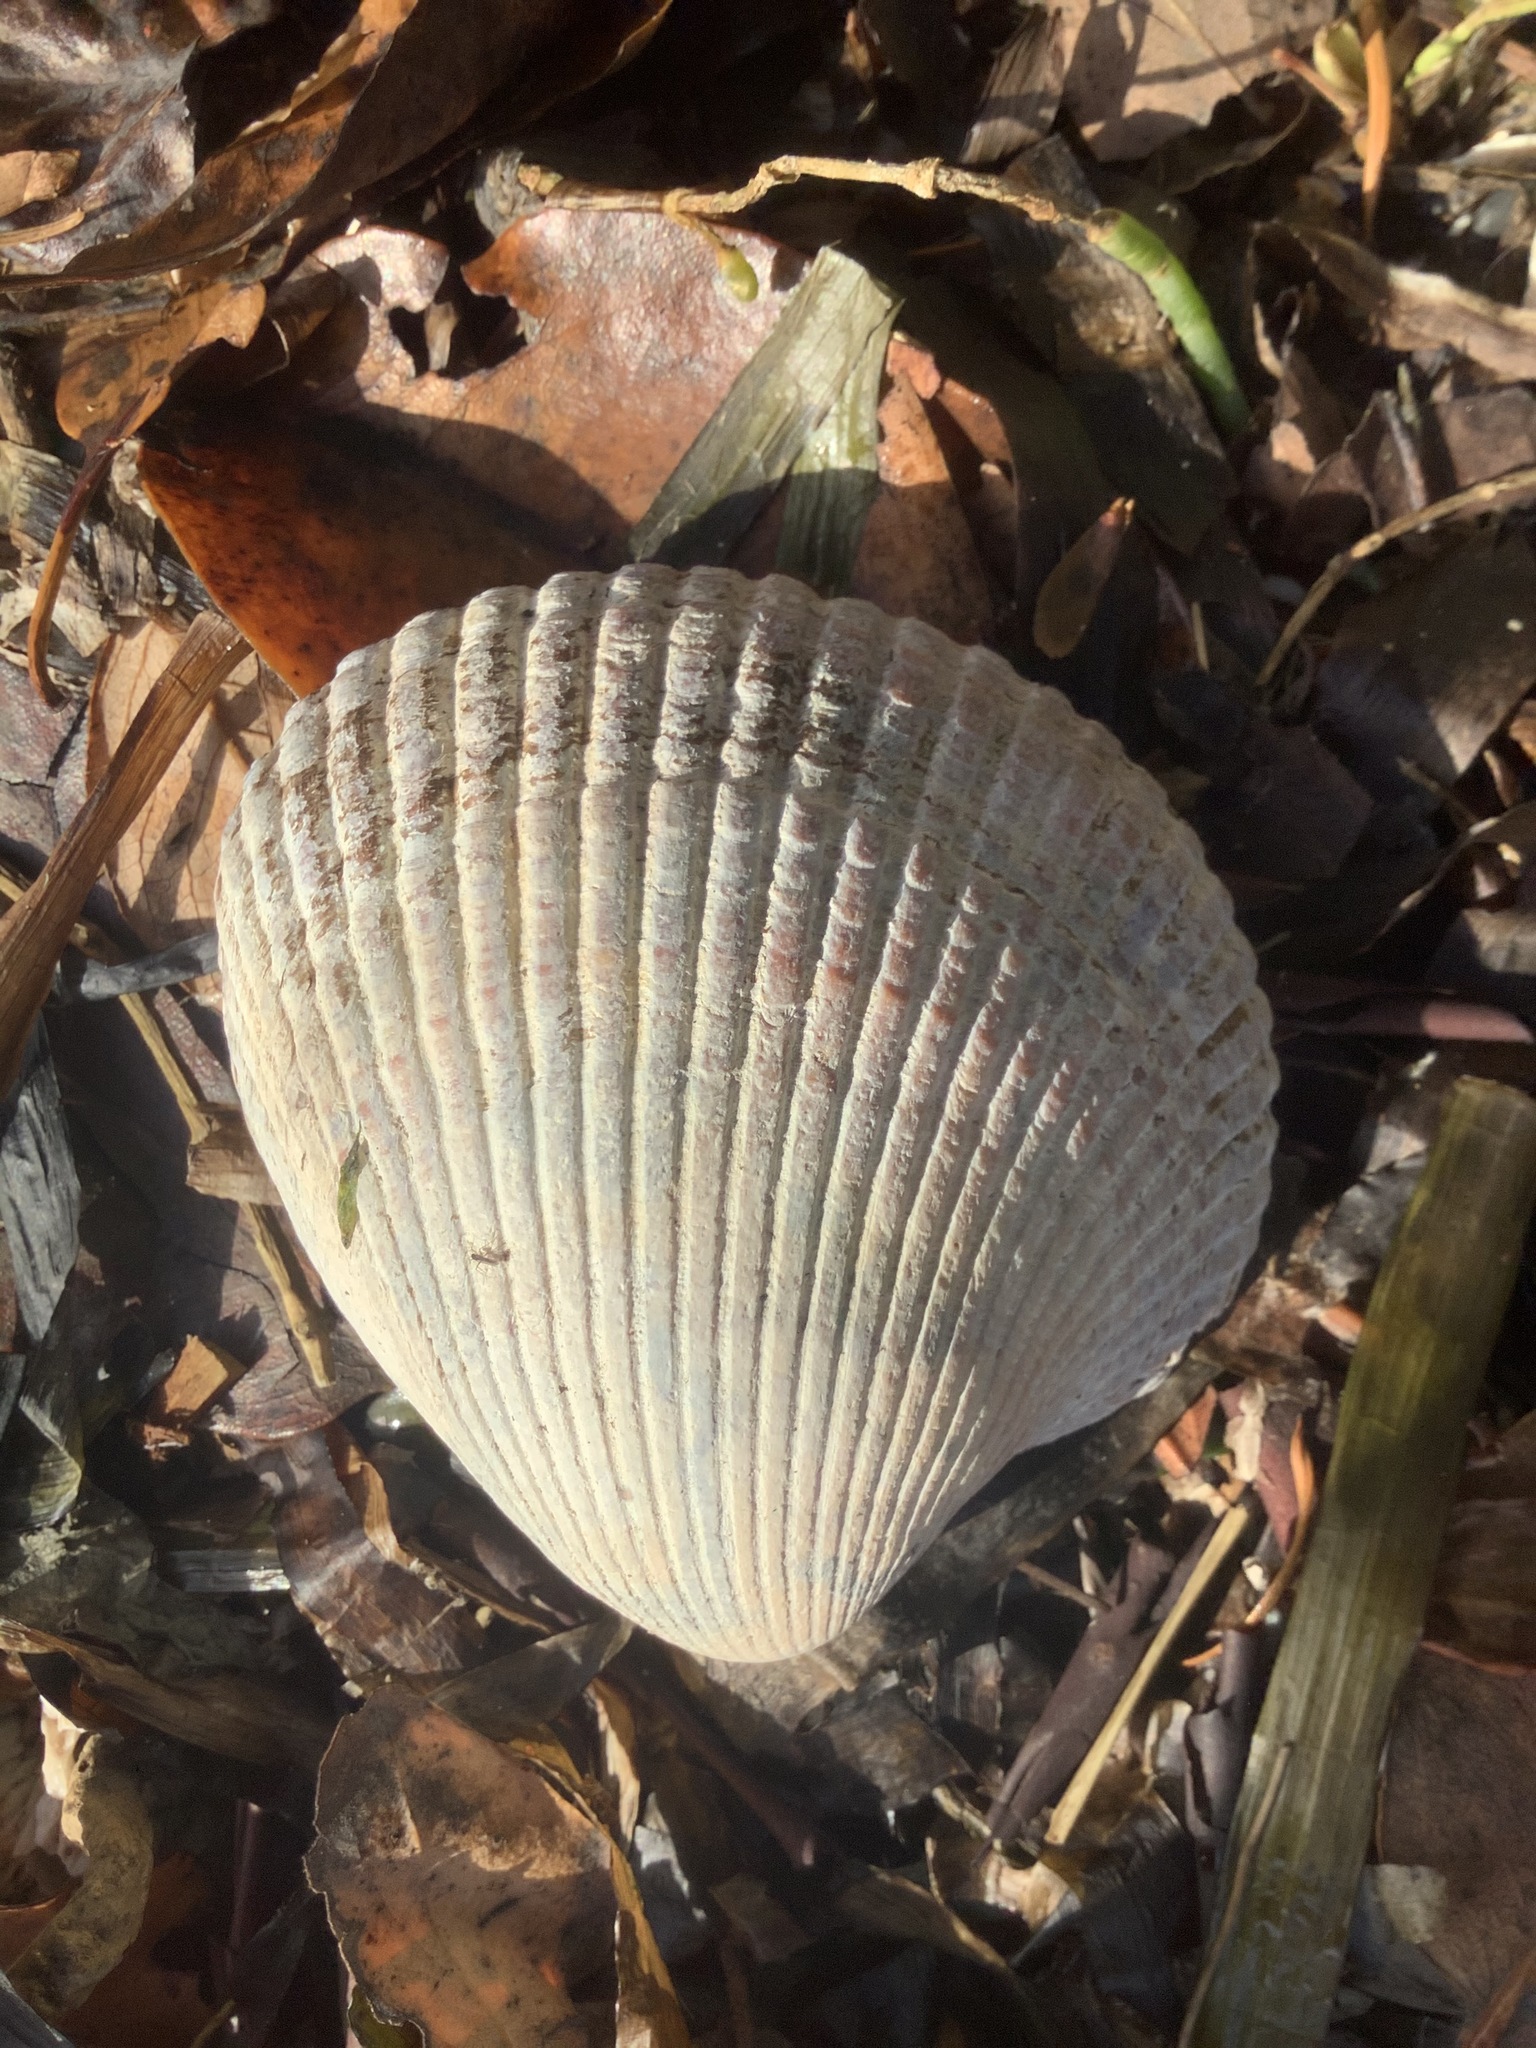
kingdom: Animalia
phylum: Mollusca
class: Bivalvia
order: Cardiida
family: Cardiidae
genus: Clinocardium
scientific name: Clinocardium nuttallii
